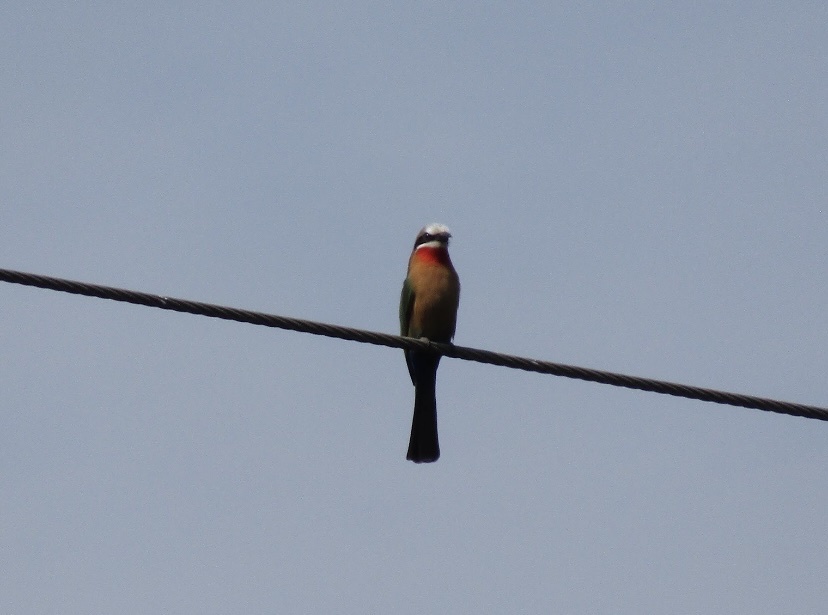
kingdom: Animalia
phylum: Chordata
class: Aves
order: Coraciiformes
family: Meropidae
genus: Merops
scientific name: Merops bullockoides
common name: White-fronted bee-eater
